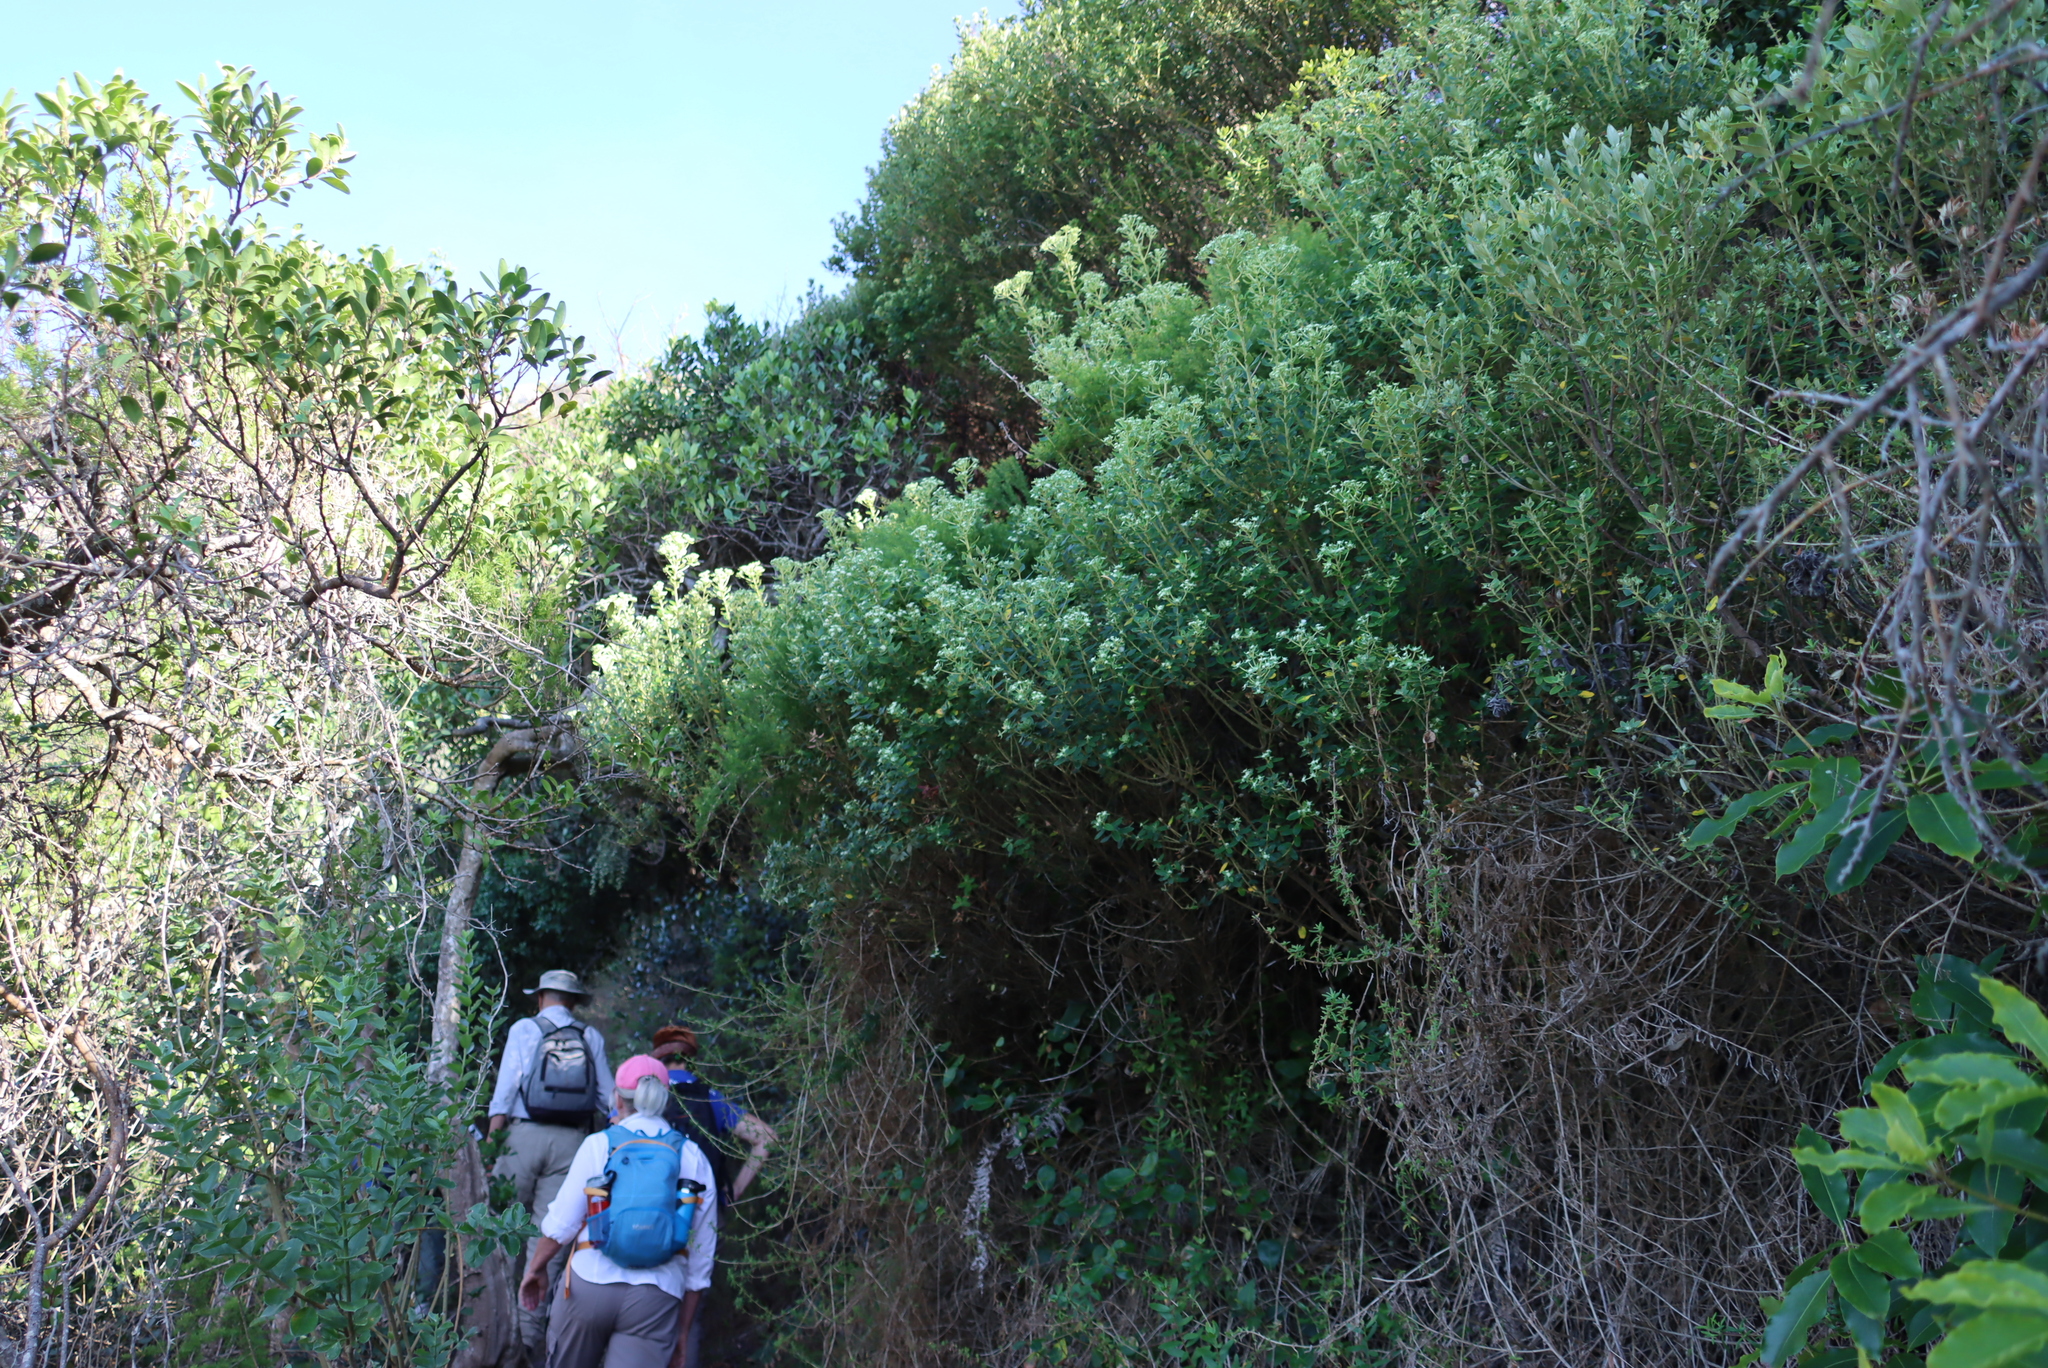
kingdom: Plantae
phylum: Tracheophyta
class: Magnoliopsida
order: Rosales
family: Rhamnaceae
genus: Phylica
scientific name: Phylica buxifolia
